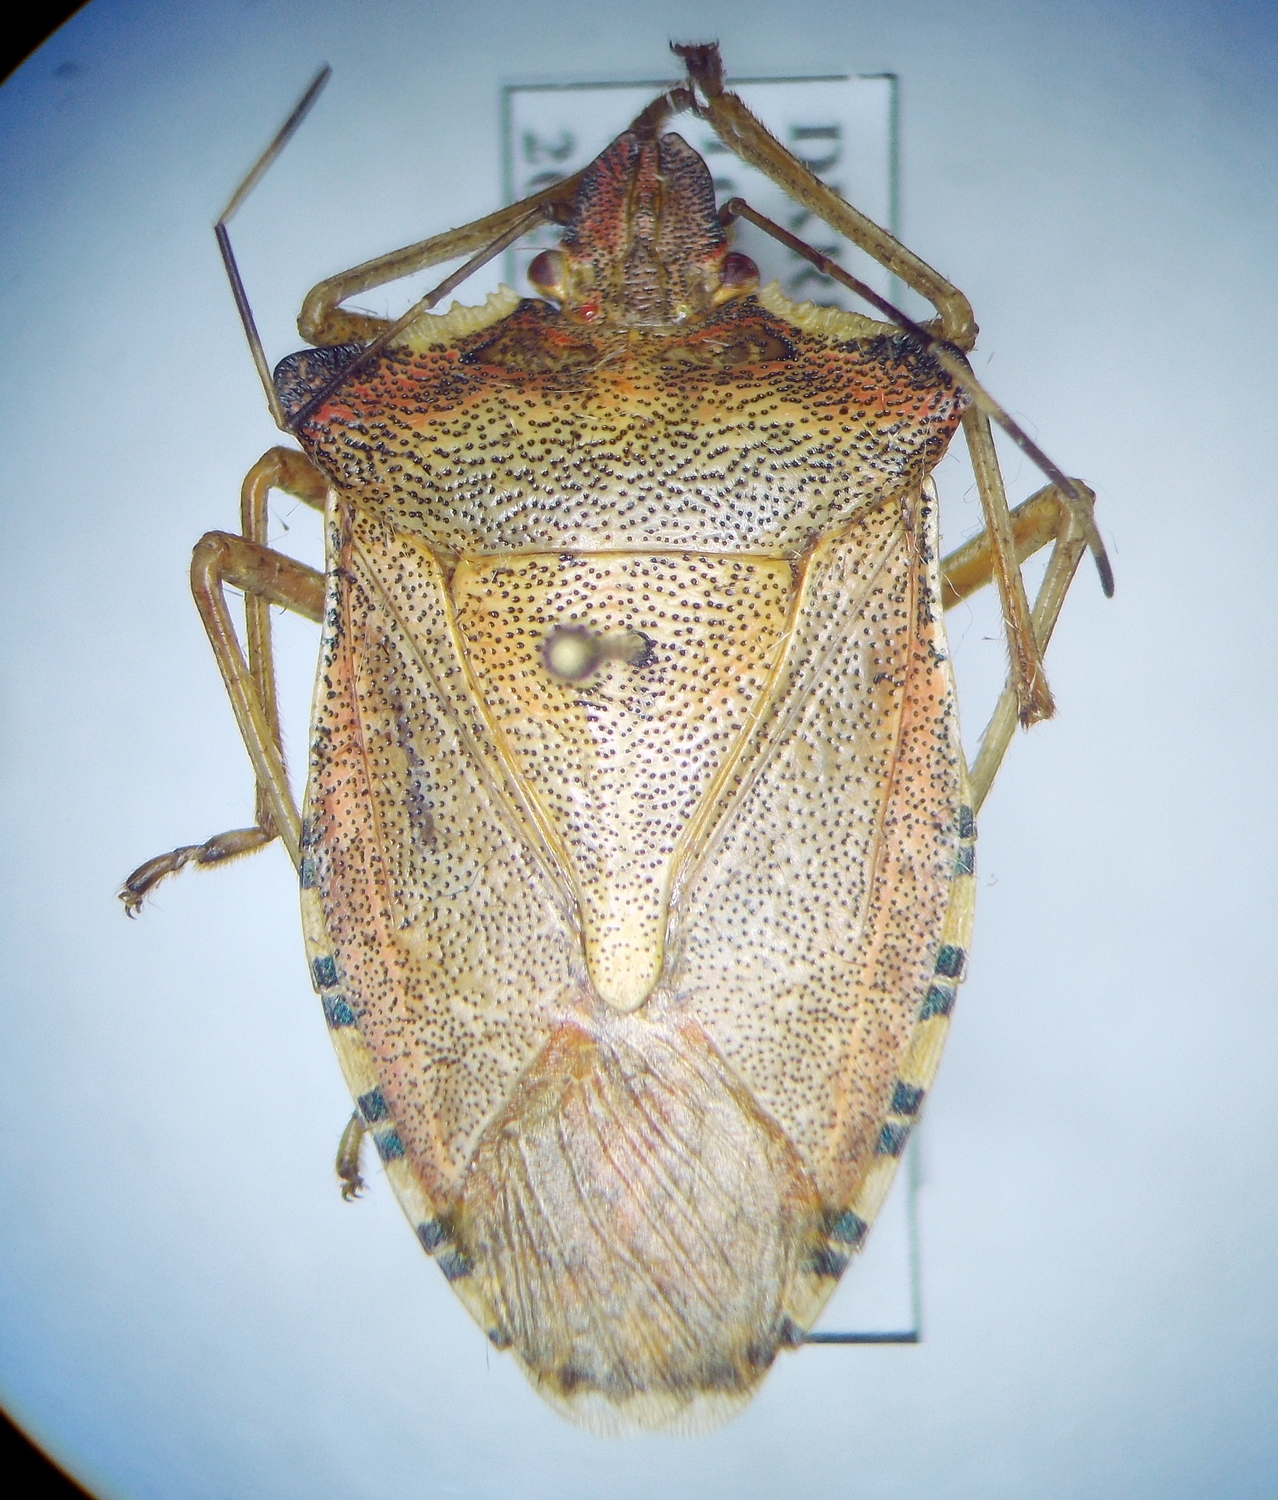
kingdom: Animalia
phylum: Arthropoda
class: Insecta
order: Hemiptera
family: Pentatomidae
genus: Pentatoma
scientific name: Pentatoma
